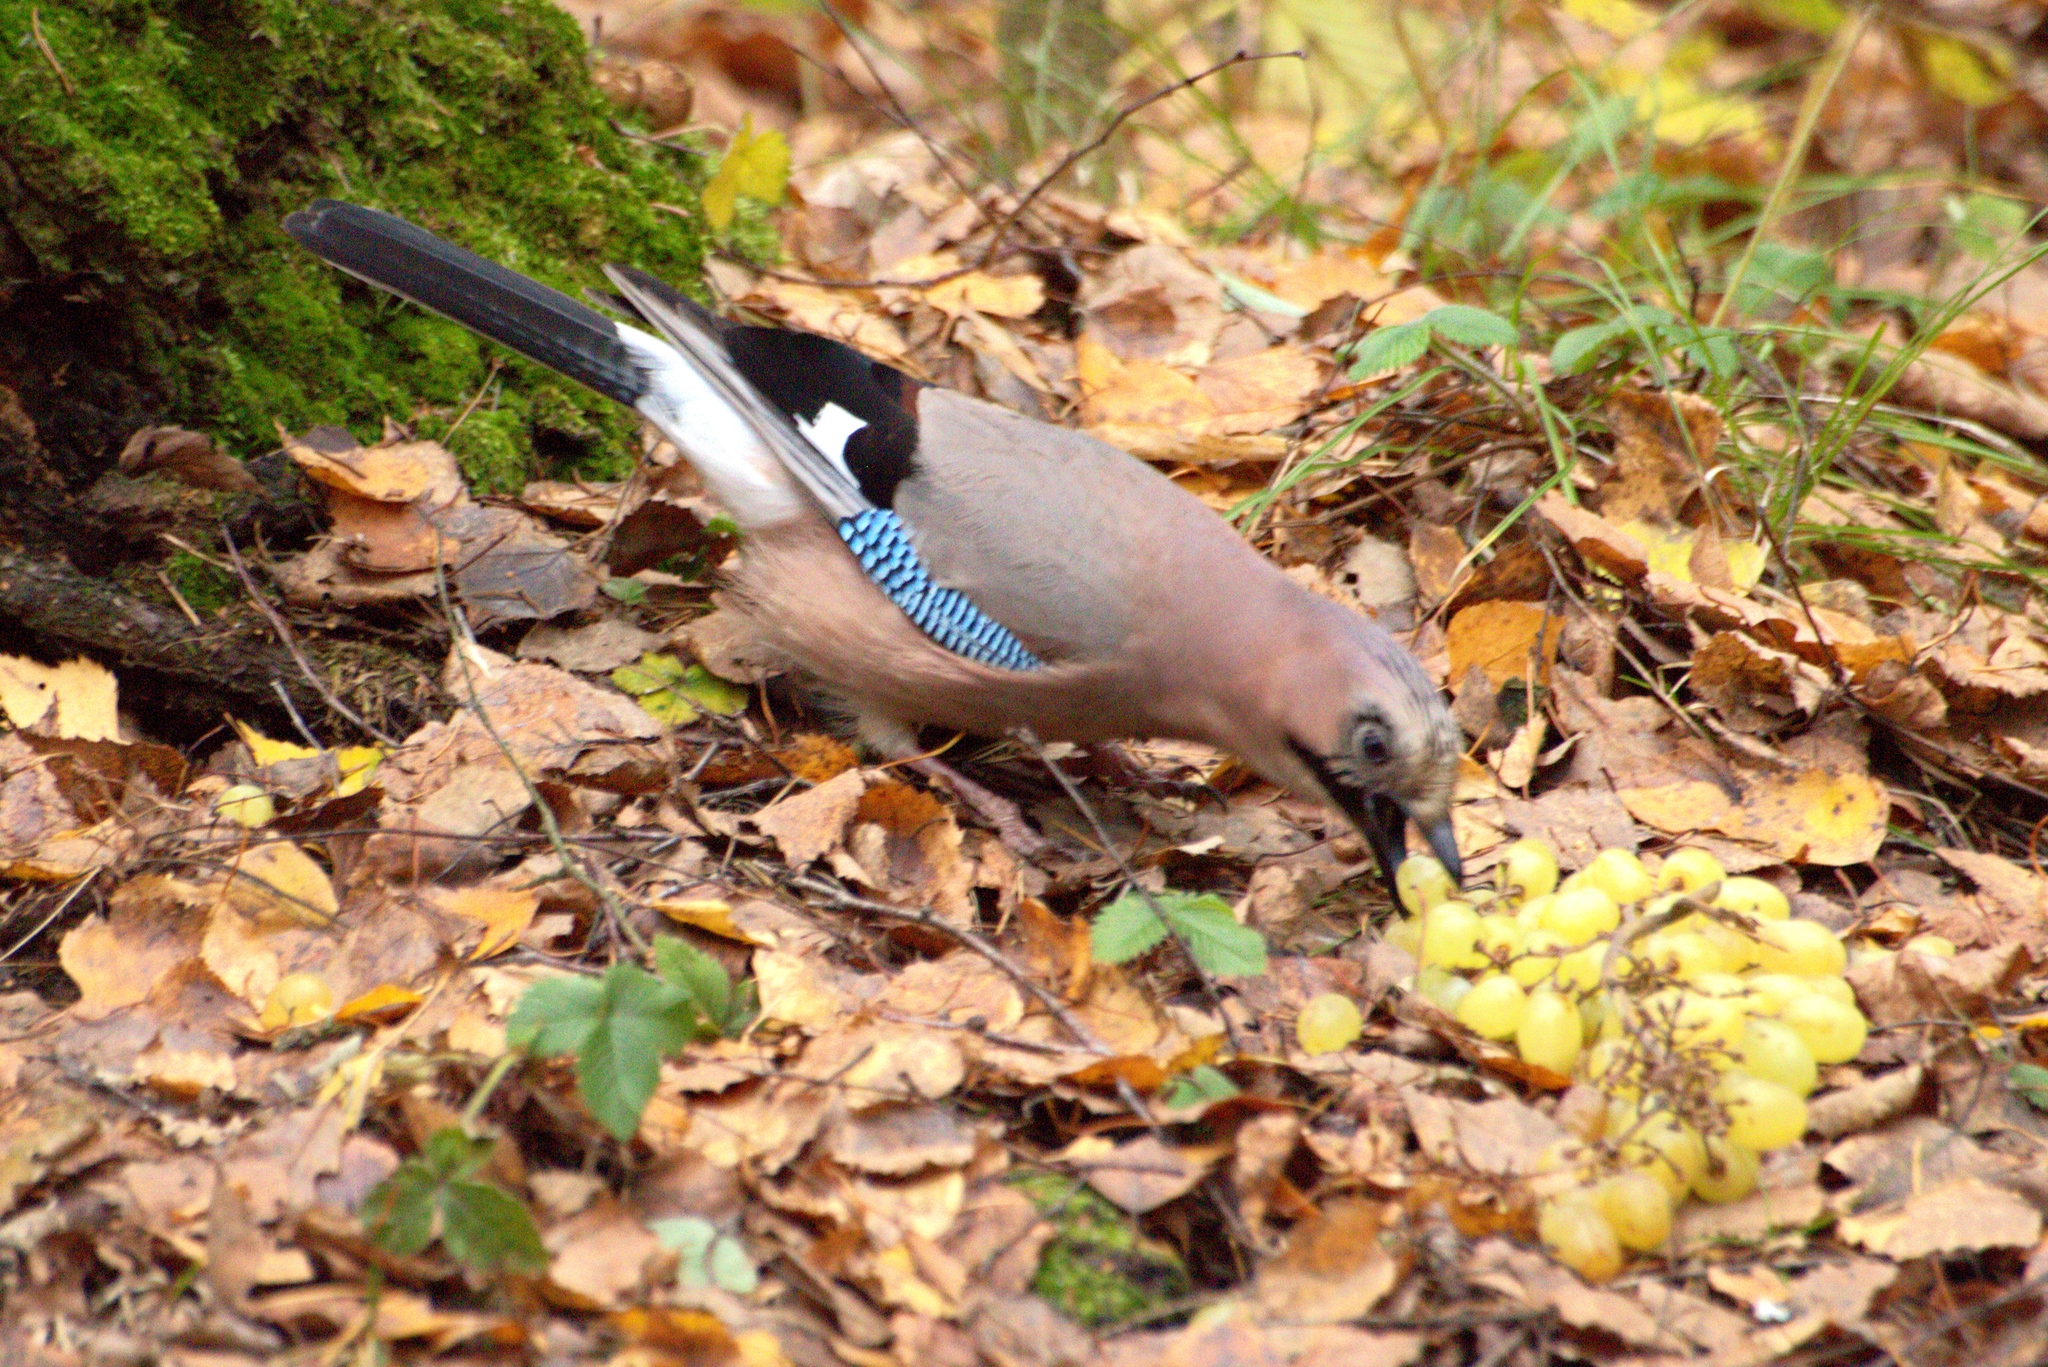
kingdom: Animalia
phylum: Chordata
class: Aves
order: Passeriformes
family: Corvidae
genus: Garrulus
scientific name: Garrulus glandarius
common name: Eurasian jay
